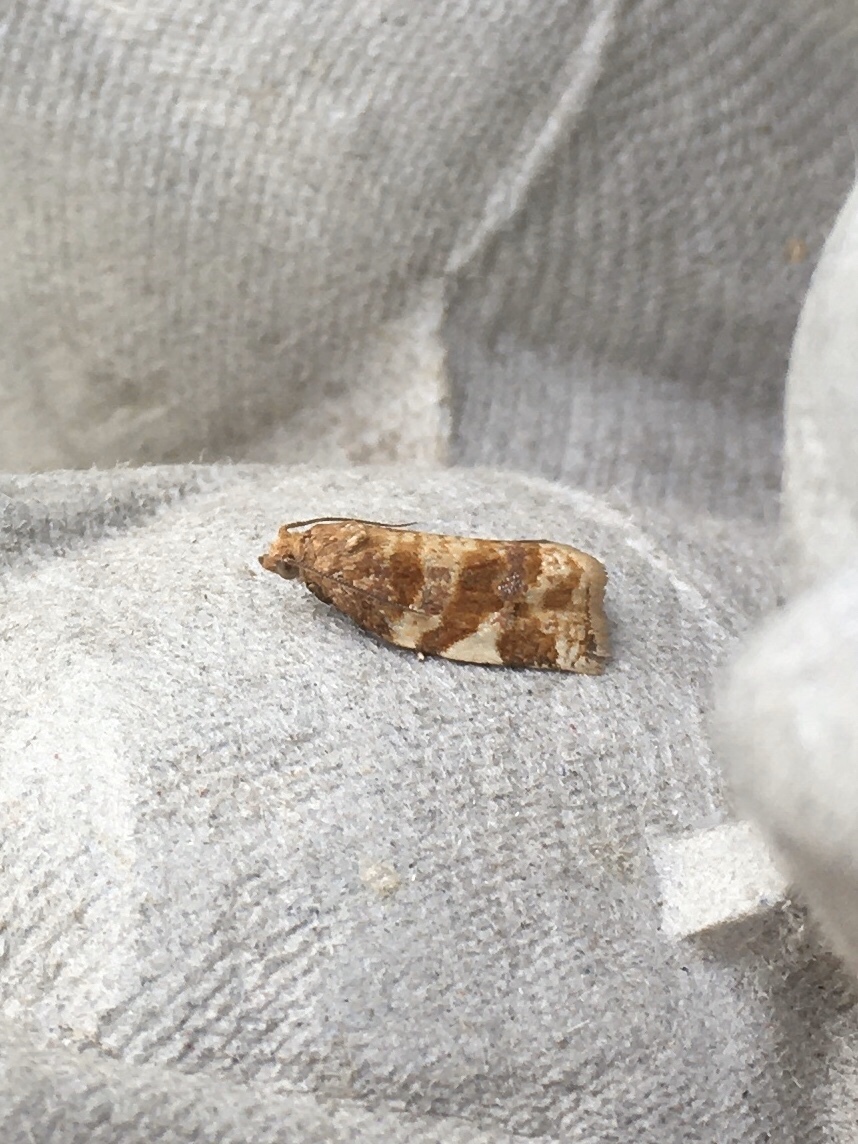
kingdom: Animalia
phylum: Arthropoda
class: Insecta
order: Lepidoptera
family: Tortricidae
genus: Archips
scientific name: Archips argyrospila
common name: Fruit-tree leafroller moth
